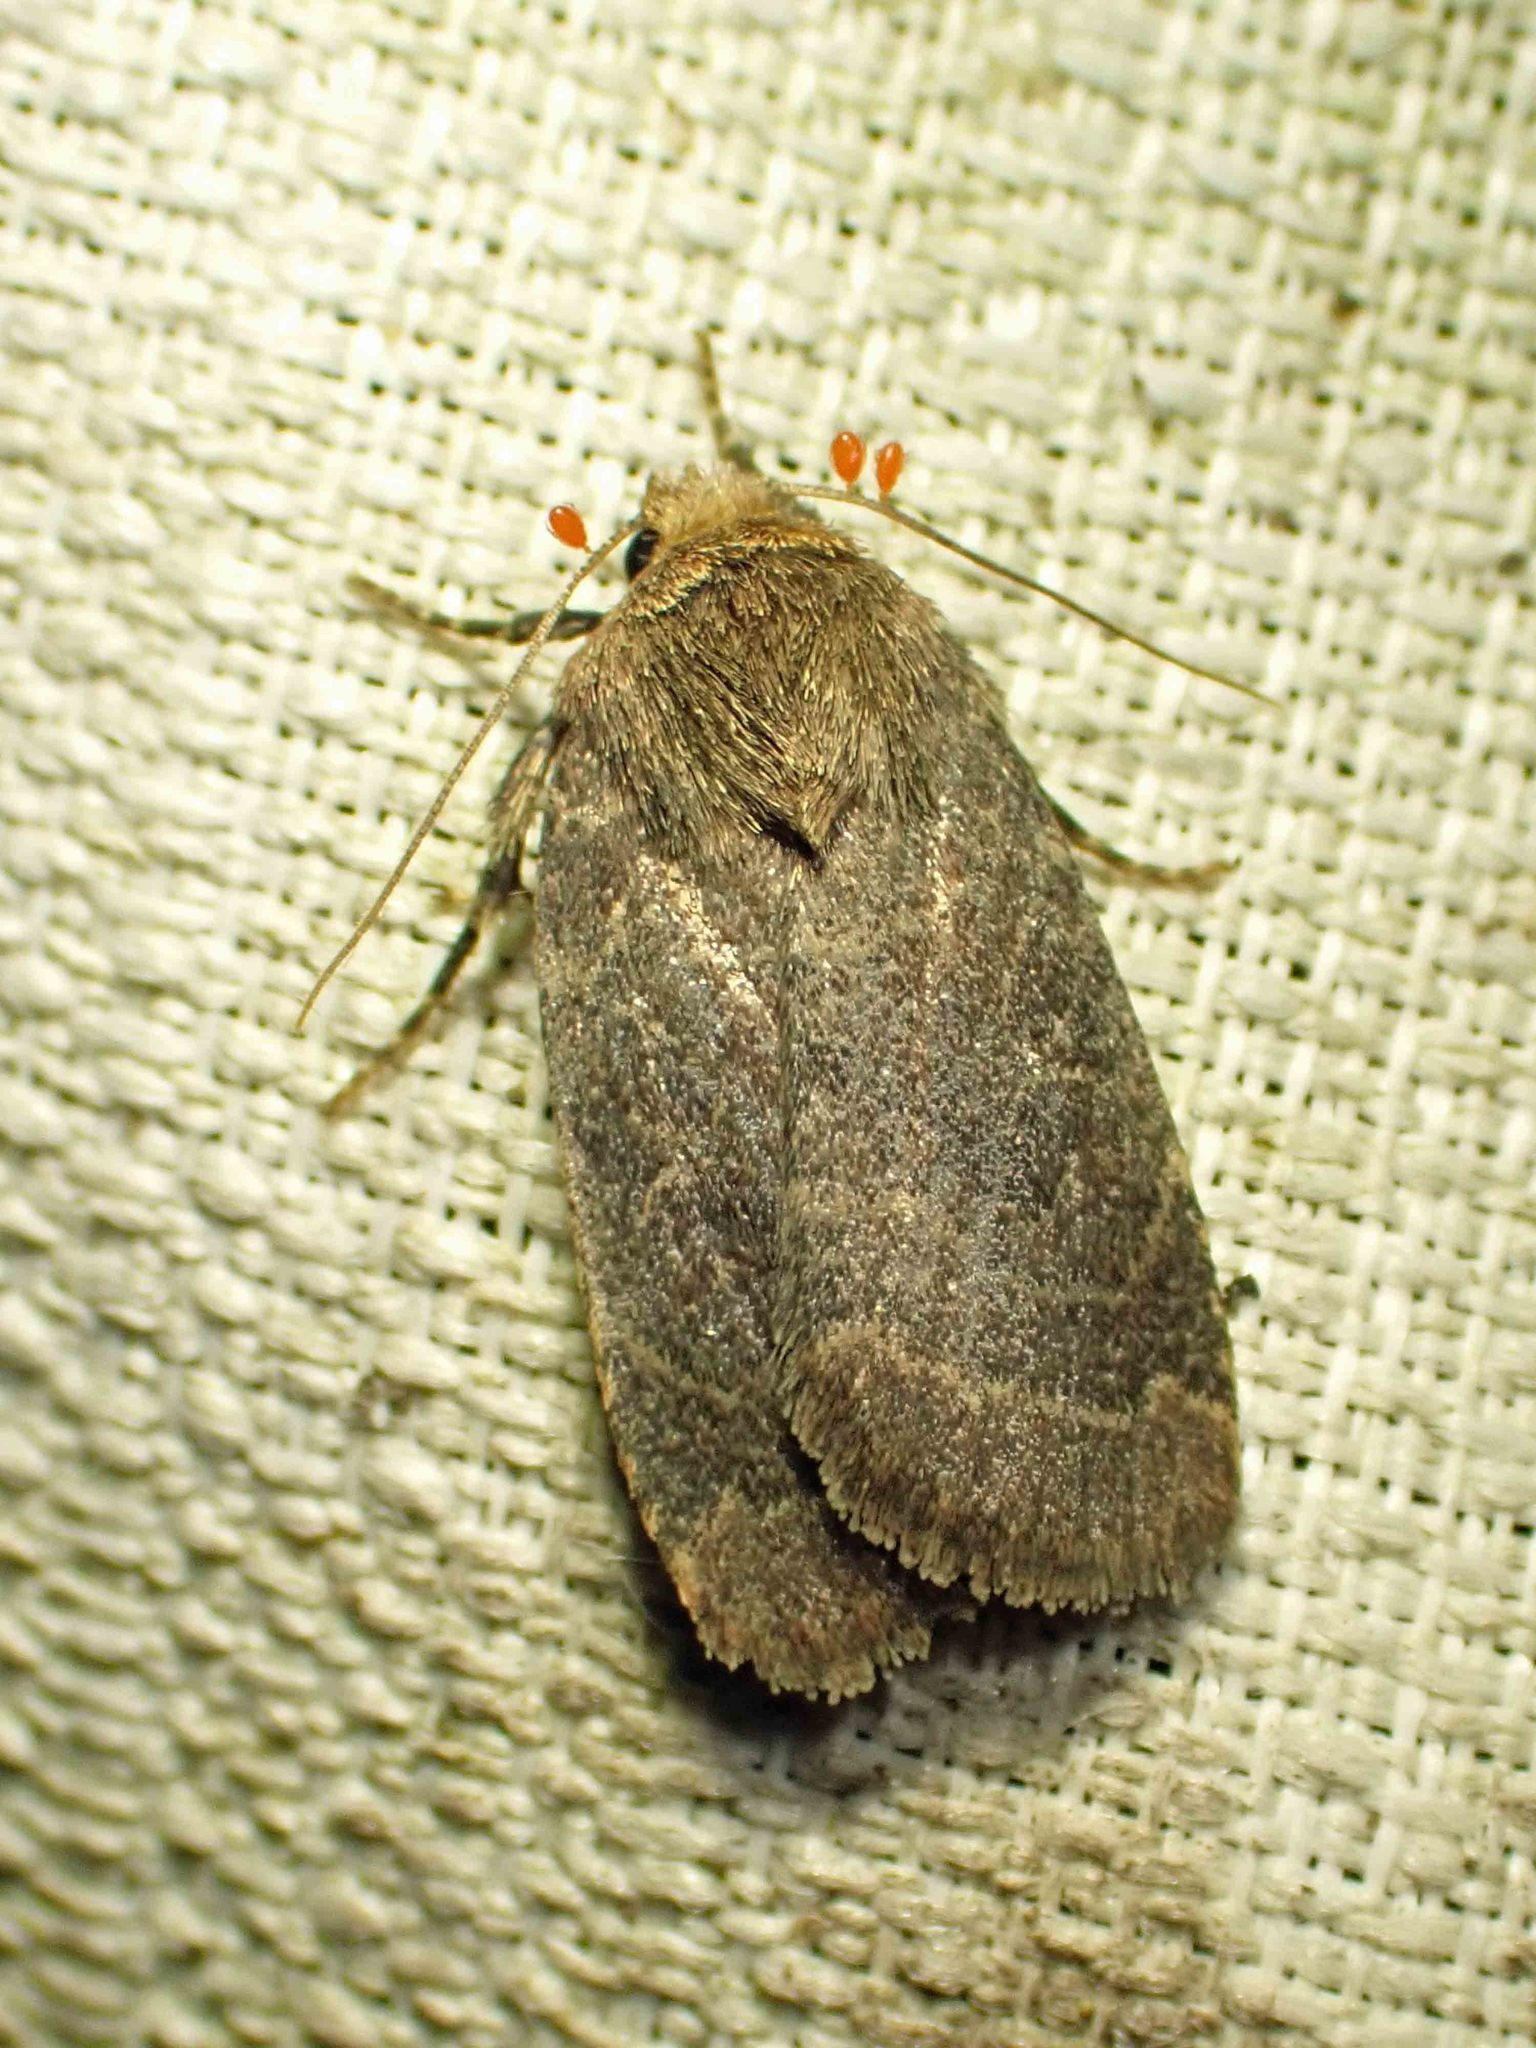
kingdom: Animalia
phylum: Arthropoda
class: Insecta
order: Lepidoptera
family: Noctuidae
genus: Orthodes
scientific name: Orthodes cynica
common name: Cynical quaker
